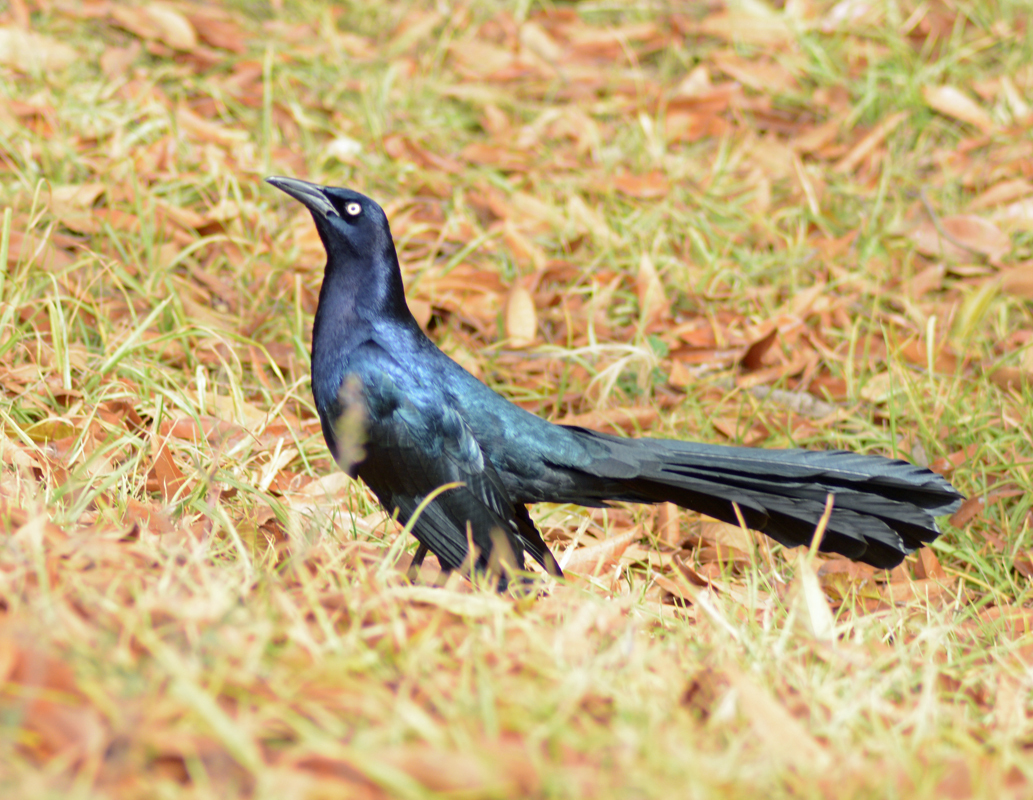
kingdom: Animalia
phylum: Chordata
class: Aves
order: Passeriformes
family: Icteridae
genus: Quiscalus
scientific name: Quiscalus mexicanus
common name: Great-tailed grackle
